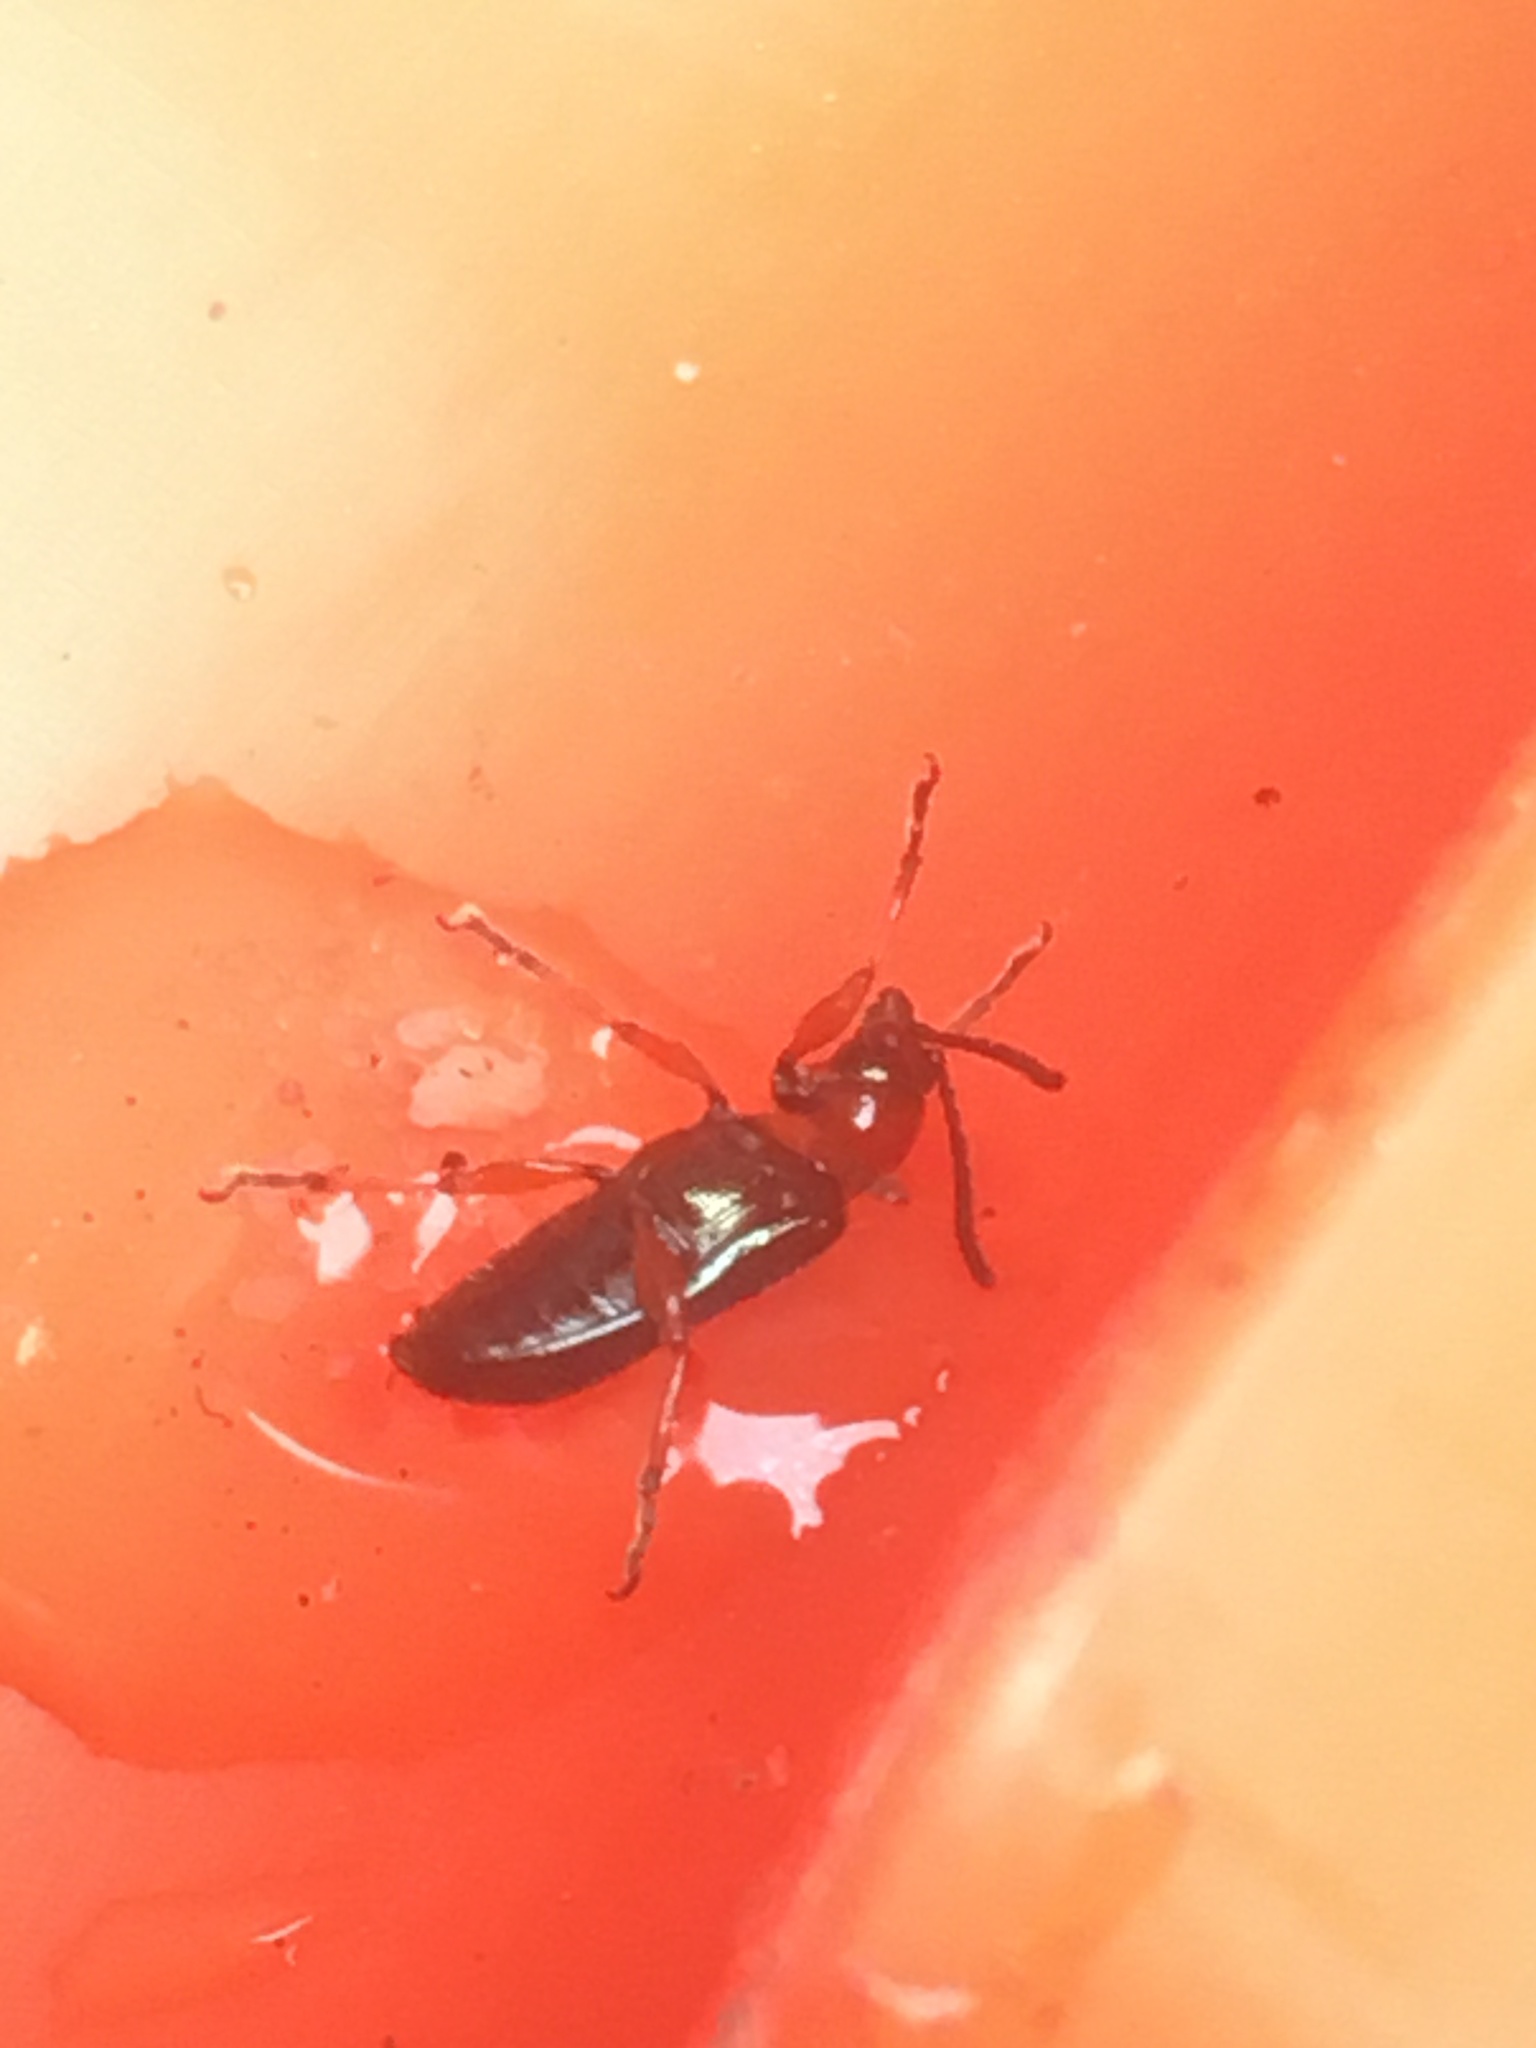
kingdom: Animalia
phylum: Arthropoda
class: Insecta
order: Coleoptera
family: Chrysomelidae
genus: Oulema
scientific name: Oulema
